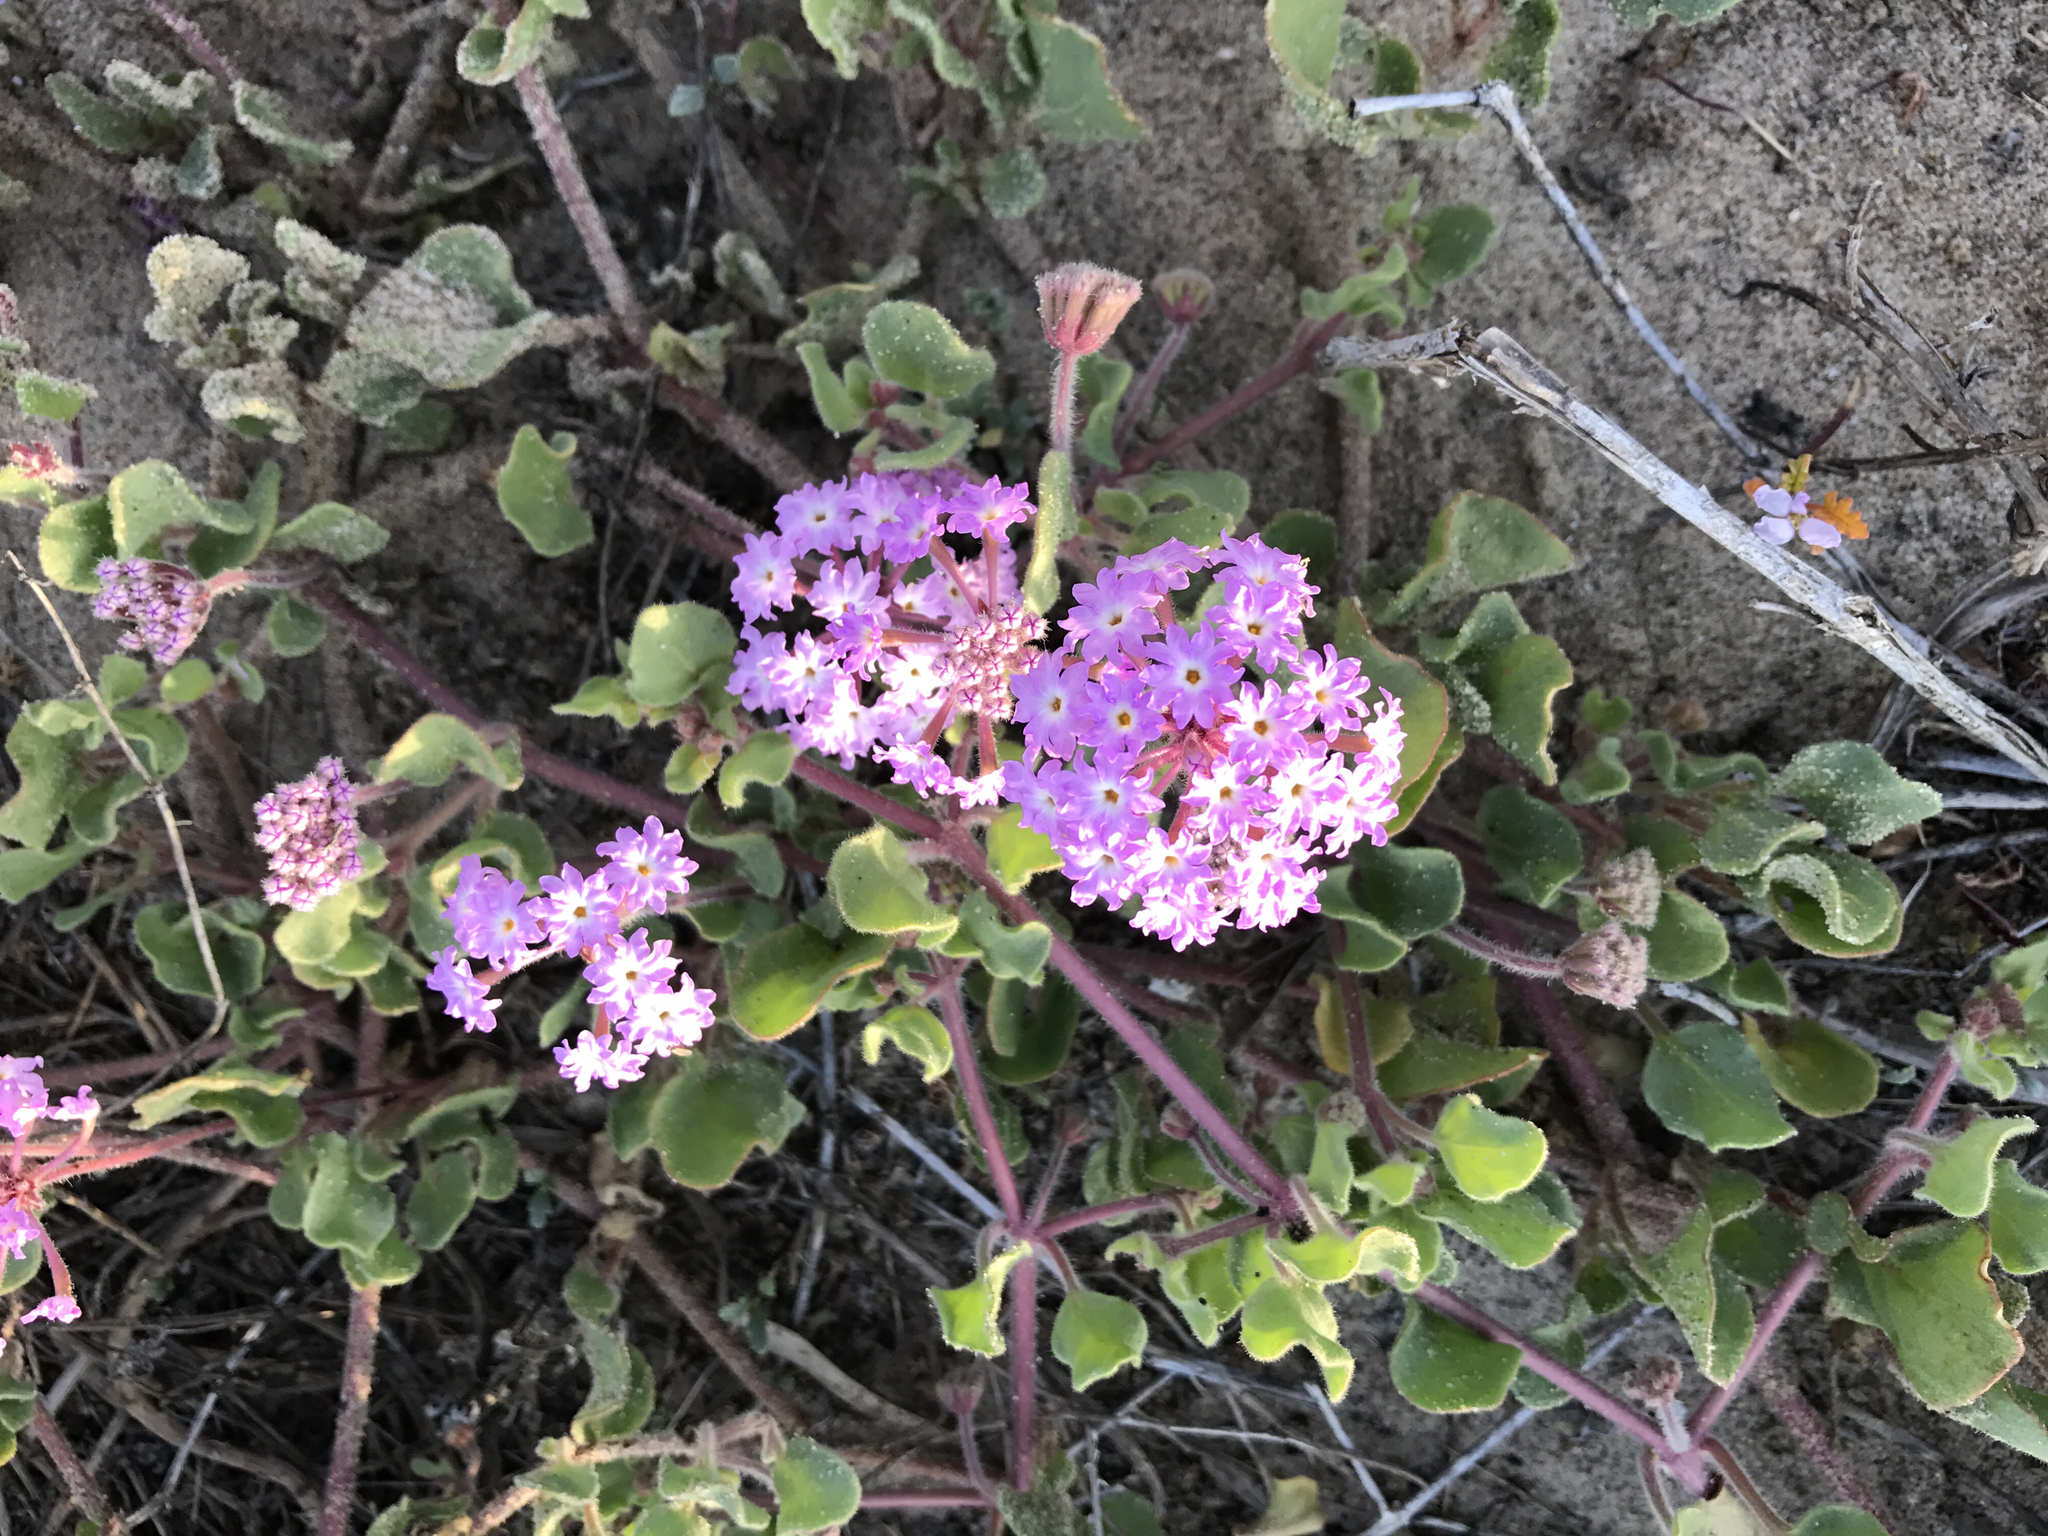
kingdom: Plantae
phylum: Tracheophyta
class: Magnoliopsida
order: Caryophyllales
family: Nyctaginaceae
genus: Abronia
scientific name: Abronia umbellata
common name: Sand-verbena
